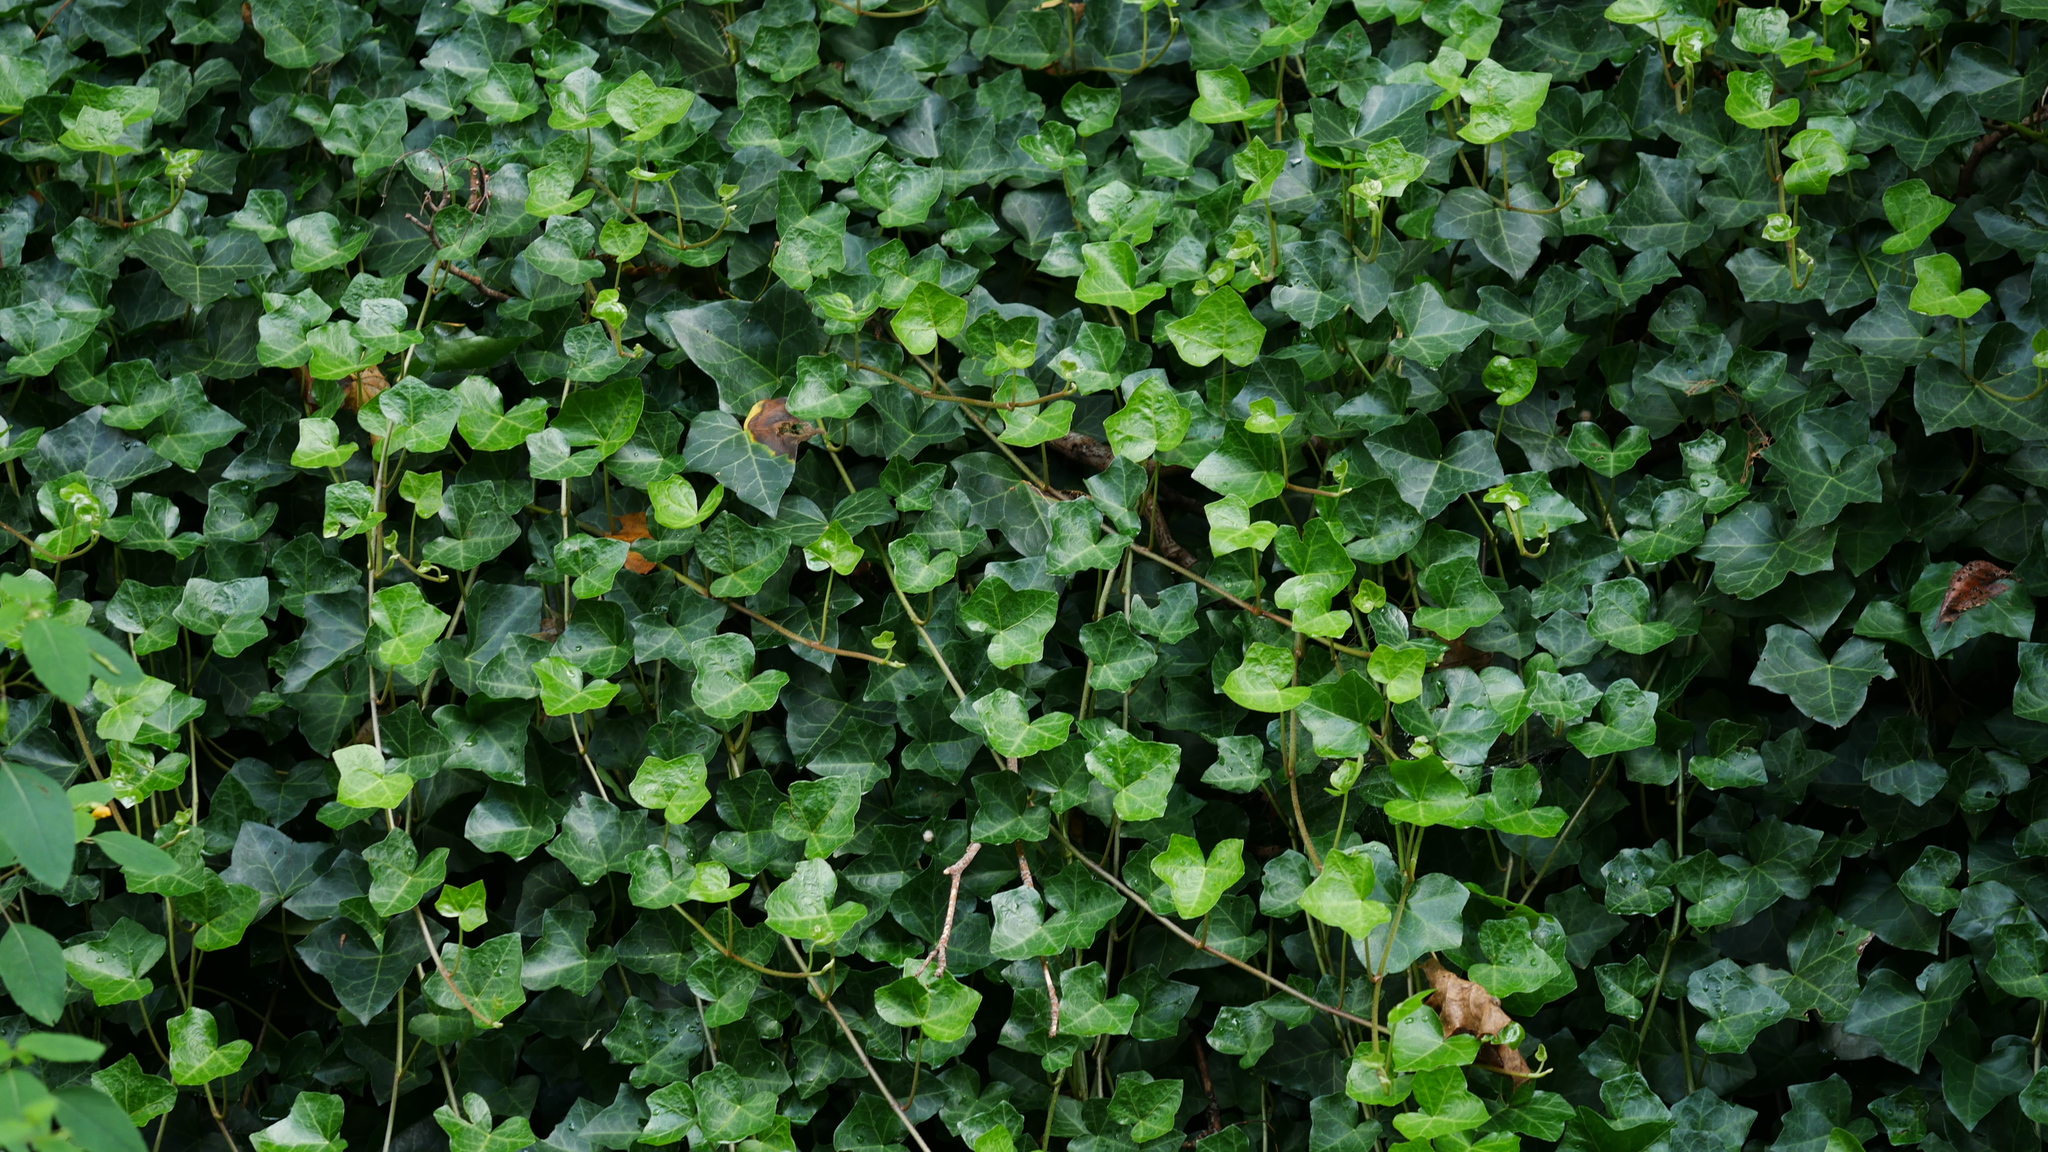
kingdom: Plantae
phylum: Tracheophyta
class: Magnoliopsida
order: Apiales
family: Araliaceae
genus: Hedera
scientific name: Hedera helix
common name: Ivy
